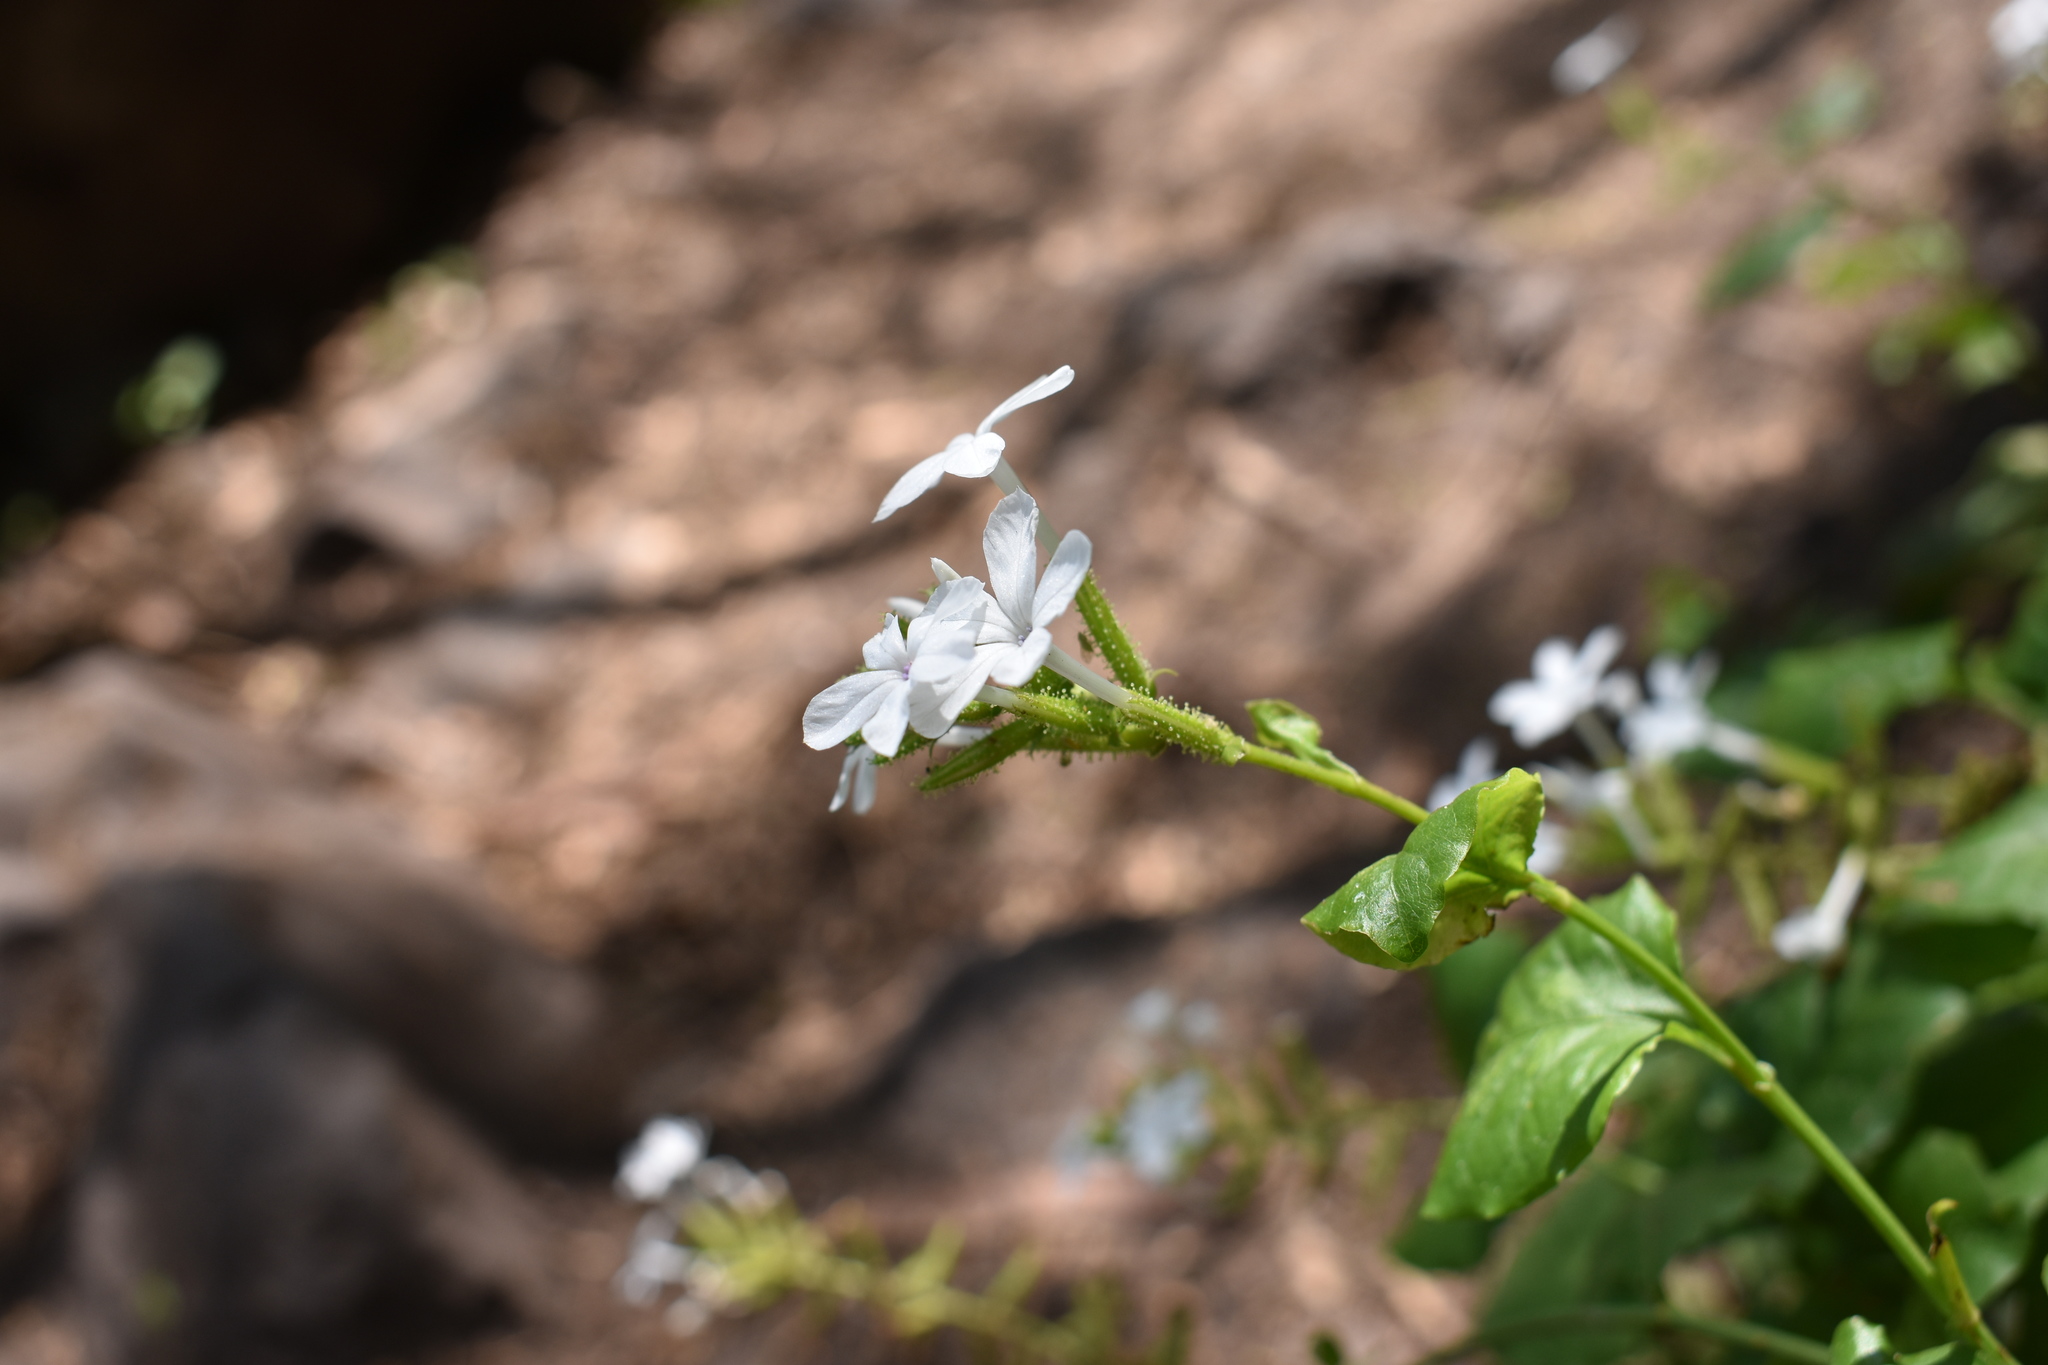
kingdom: Plantae
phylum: Tracheophyta
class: Magnoliopsida
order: Caryophyllales
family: Plumbaginaceae
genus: Plumbago
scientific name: Plumbago zeylanica
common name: Doctorbush
